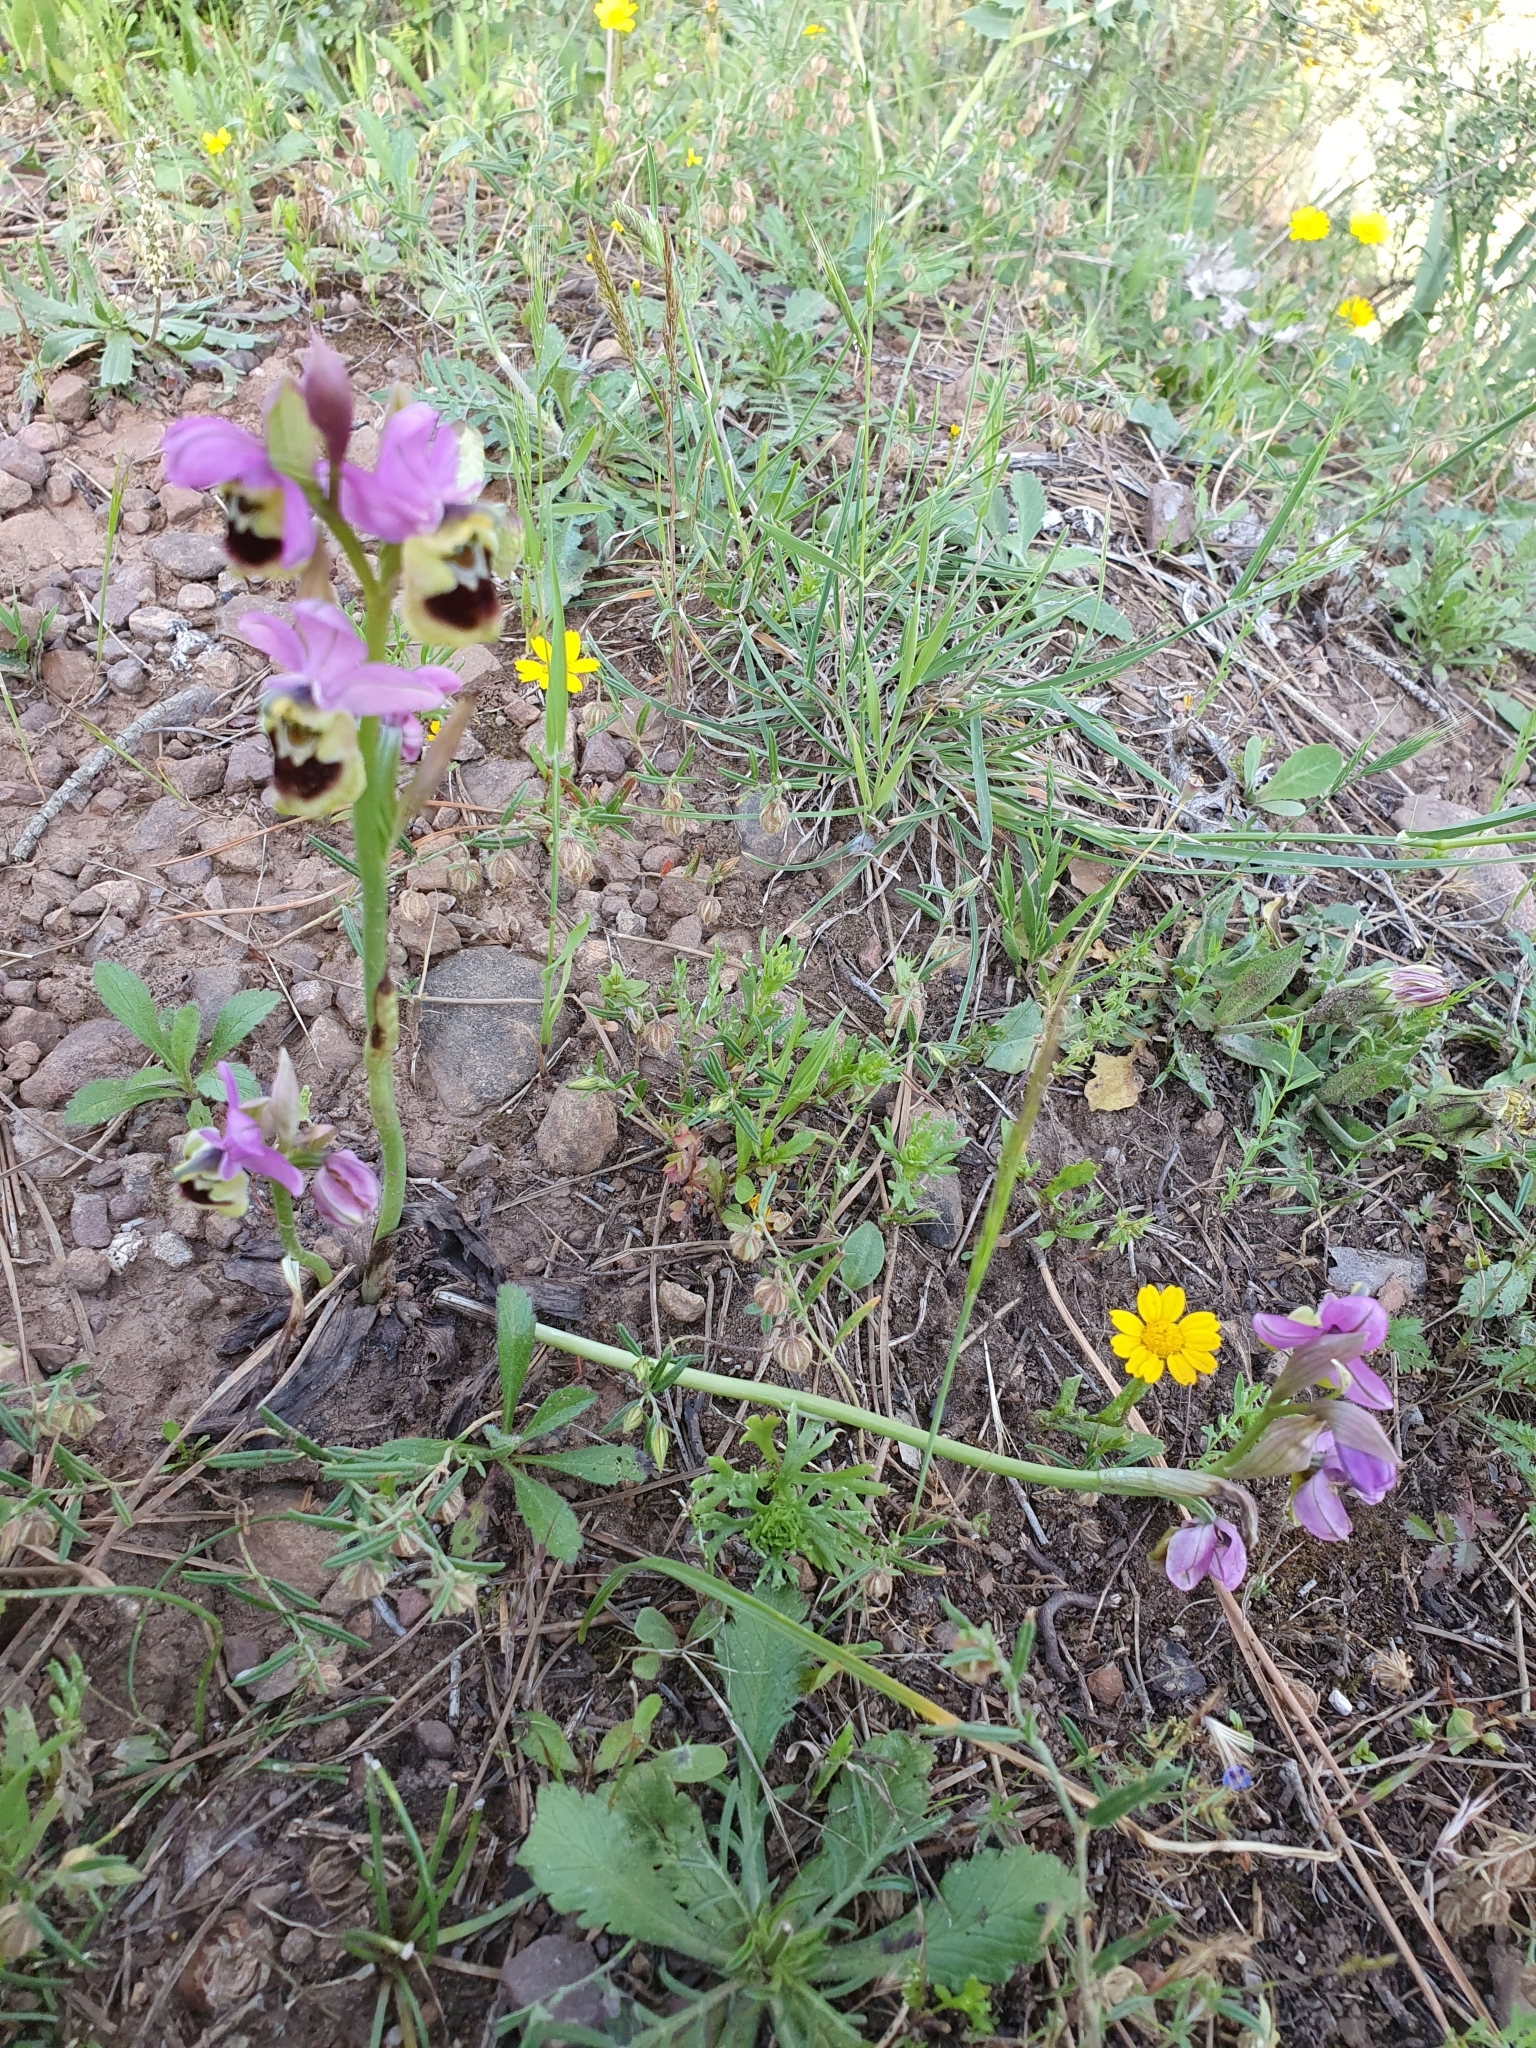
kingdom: Plantae
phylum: Tracheophyta
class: Liliopsida
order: Asparagales
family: Orchidaceae
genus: Ophrys
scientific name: Ophrys tenthredinifera
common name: Sawfly orchid
